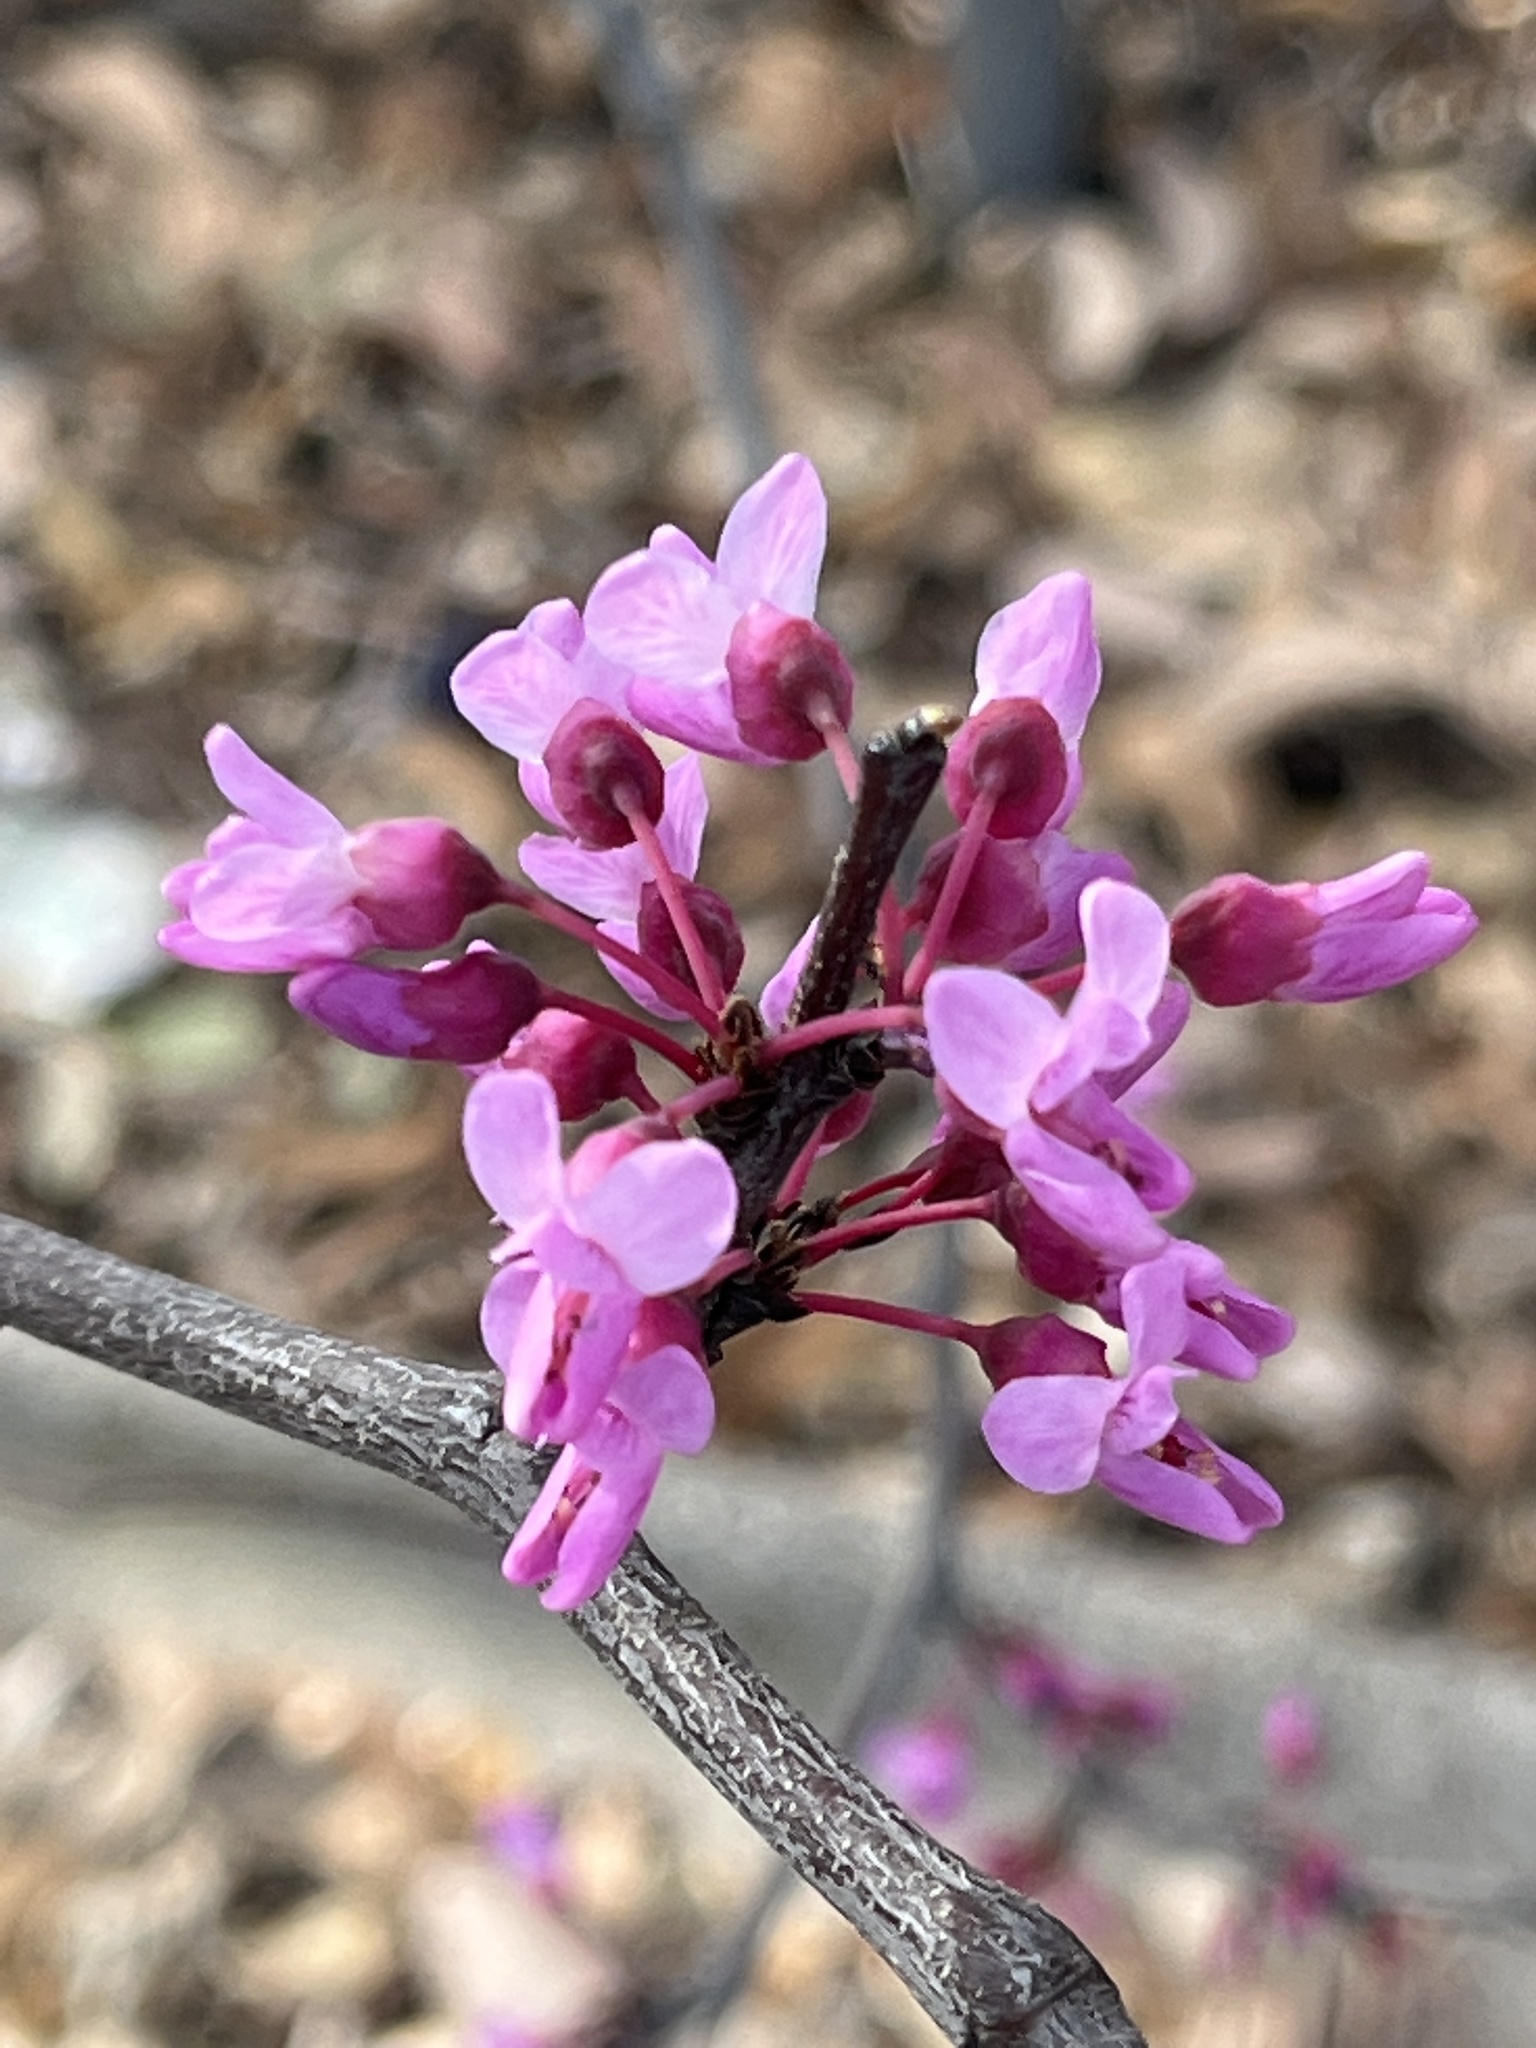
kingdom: Plantae
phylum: Tracheophyta
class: Magnoliopsida
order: Fabales
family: Fabaceae
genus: Cercis
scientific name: Cercis canadensis
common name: Eastern redbud
